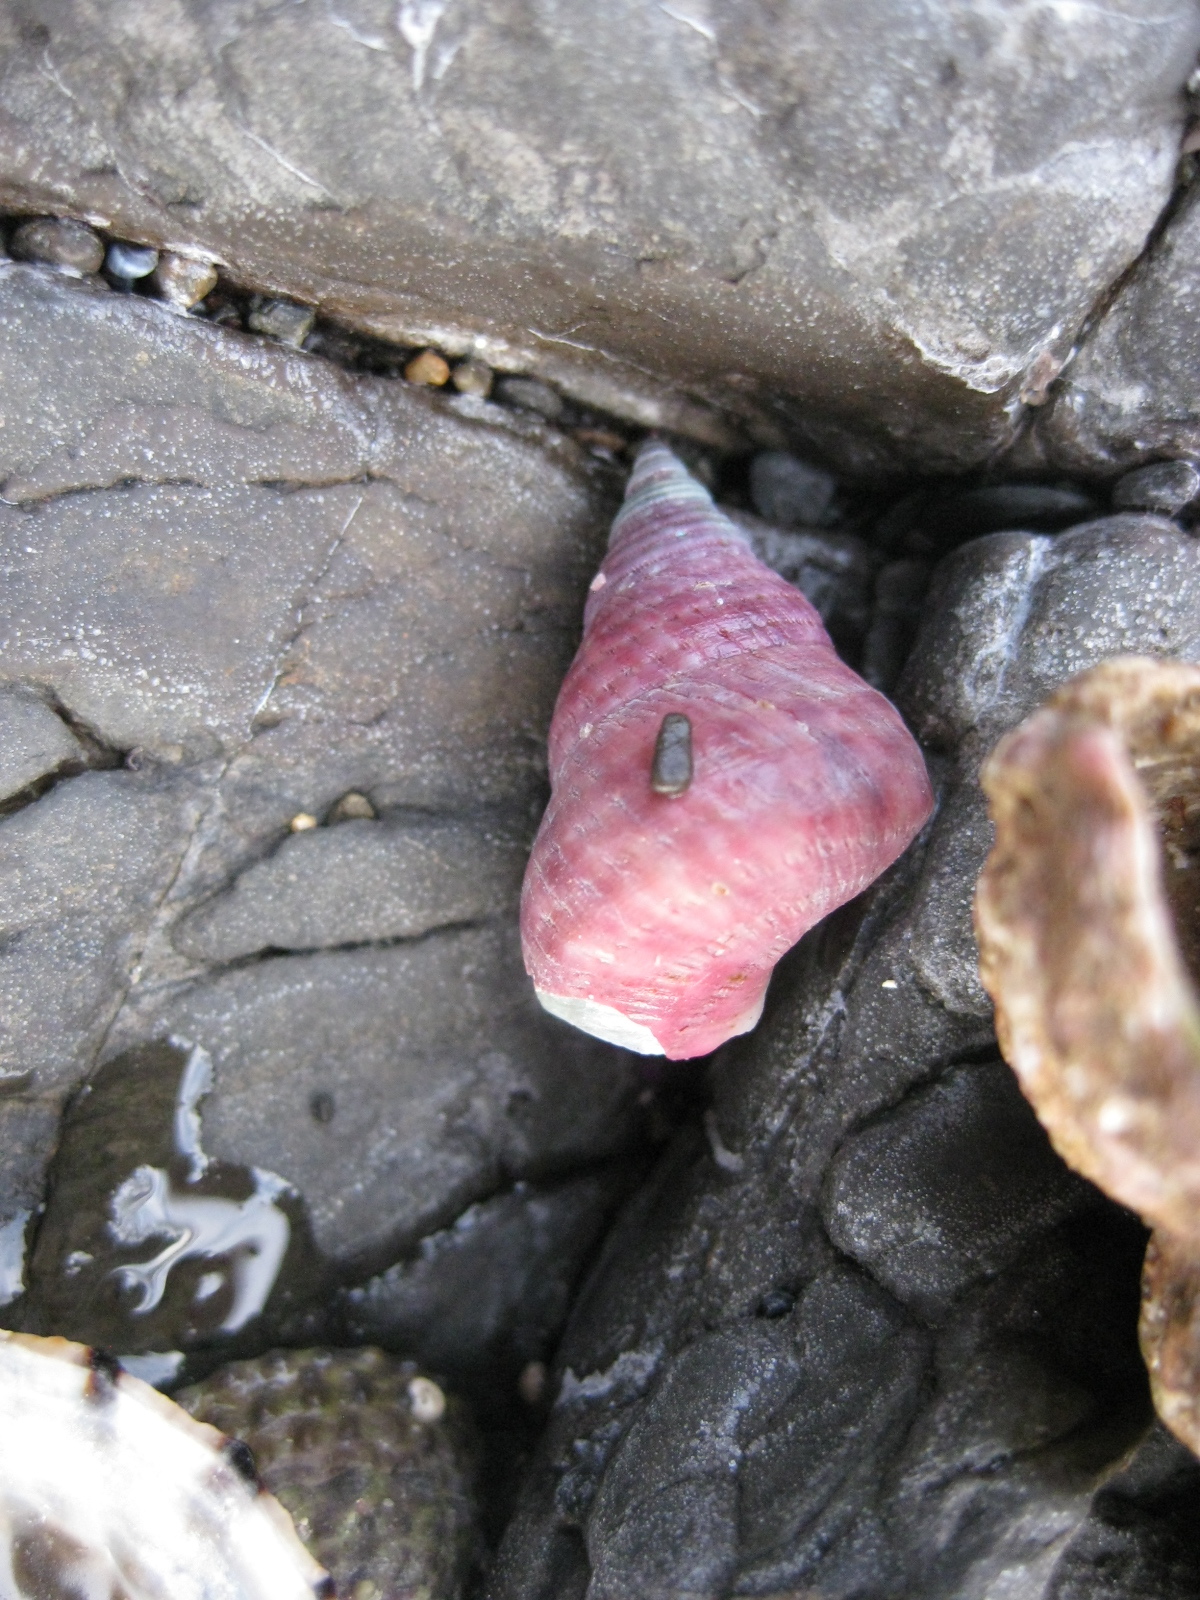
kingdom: Animalia
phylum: Mollusca
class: Gastropoda
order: Trochida
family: Trochidae
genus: Micrelenchus
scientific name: Micrelenchus purpureus
